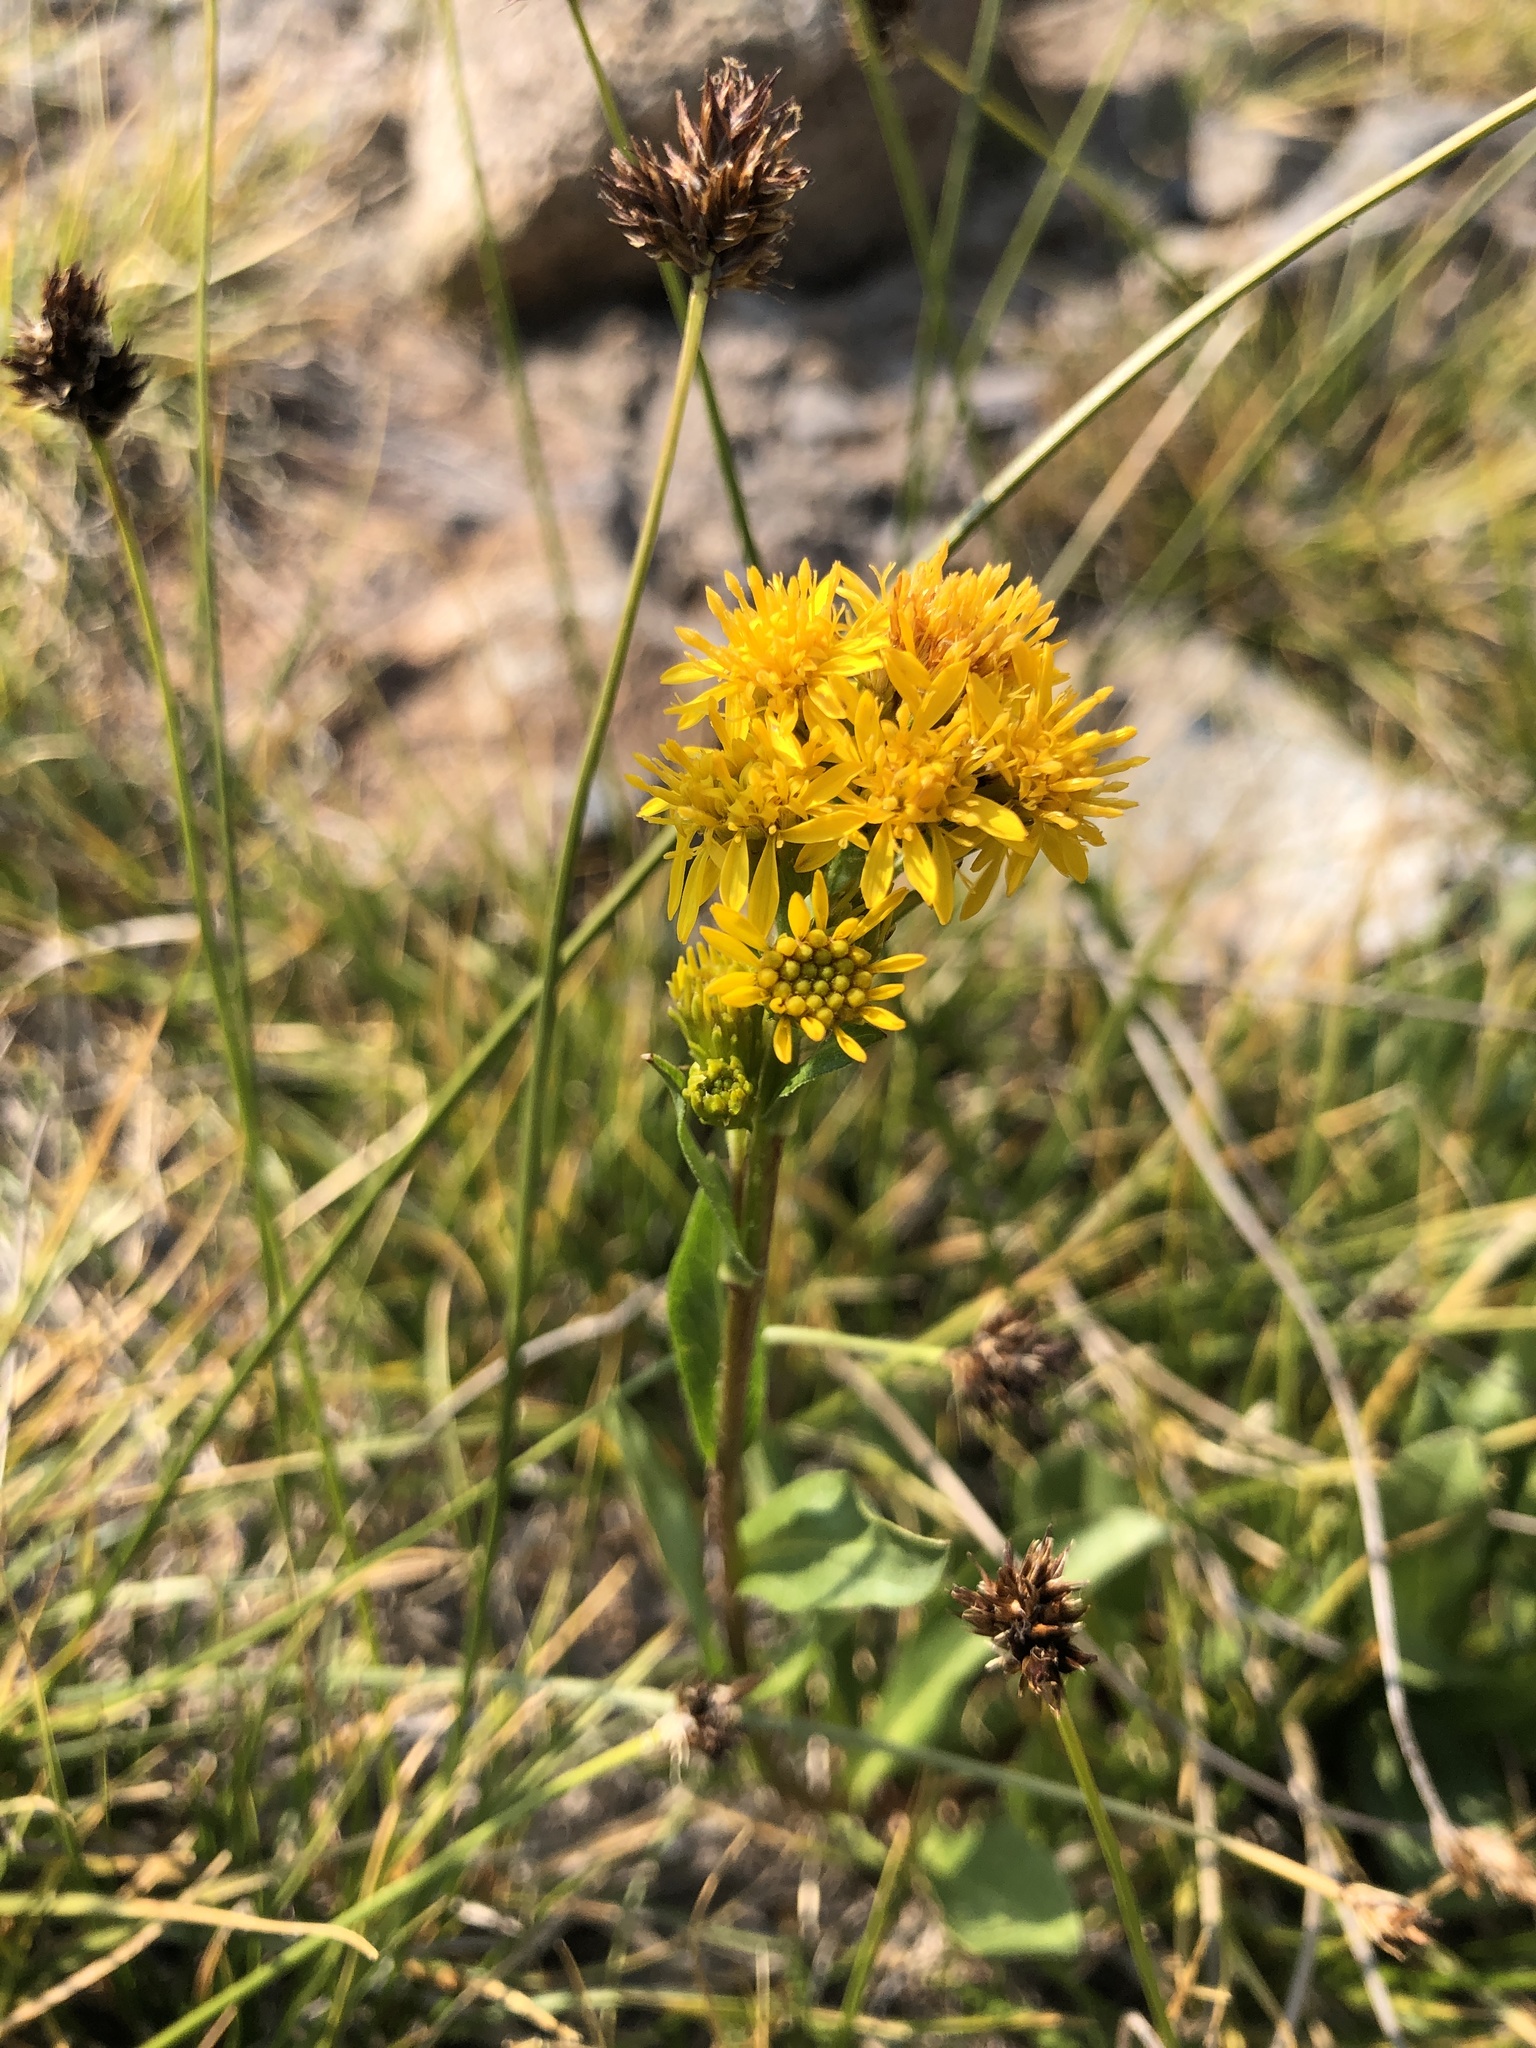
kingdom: Plantae
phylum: Tracheophyta
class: Magnoliopsida
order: Asterales
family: Asteraceae
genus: Solidago
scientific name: Solidago multiradiata
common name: Northern goldenrod
